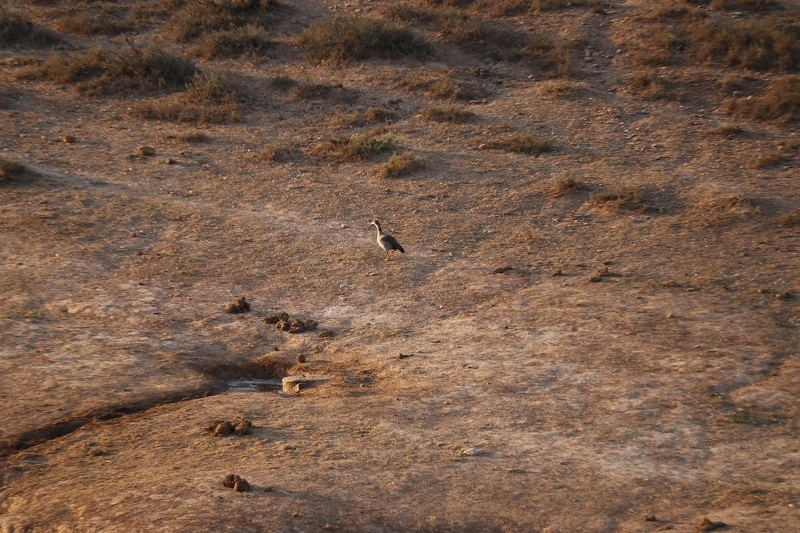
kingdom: Animalia
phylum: Chordata
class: Aves
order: Anseriformes
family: Anatidae
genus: Alopochen
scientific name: Alopochen aegyptiaca
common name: Egyptian goose
